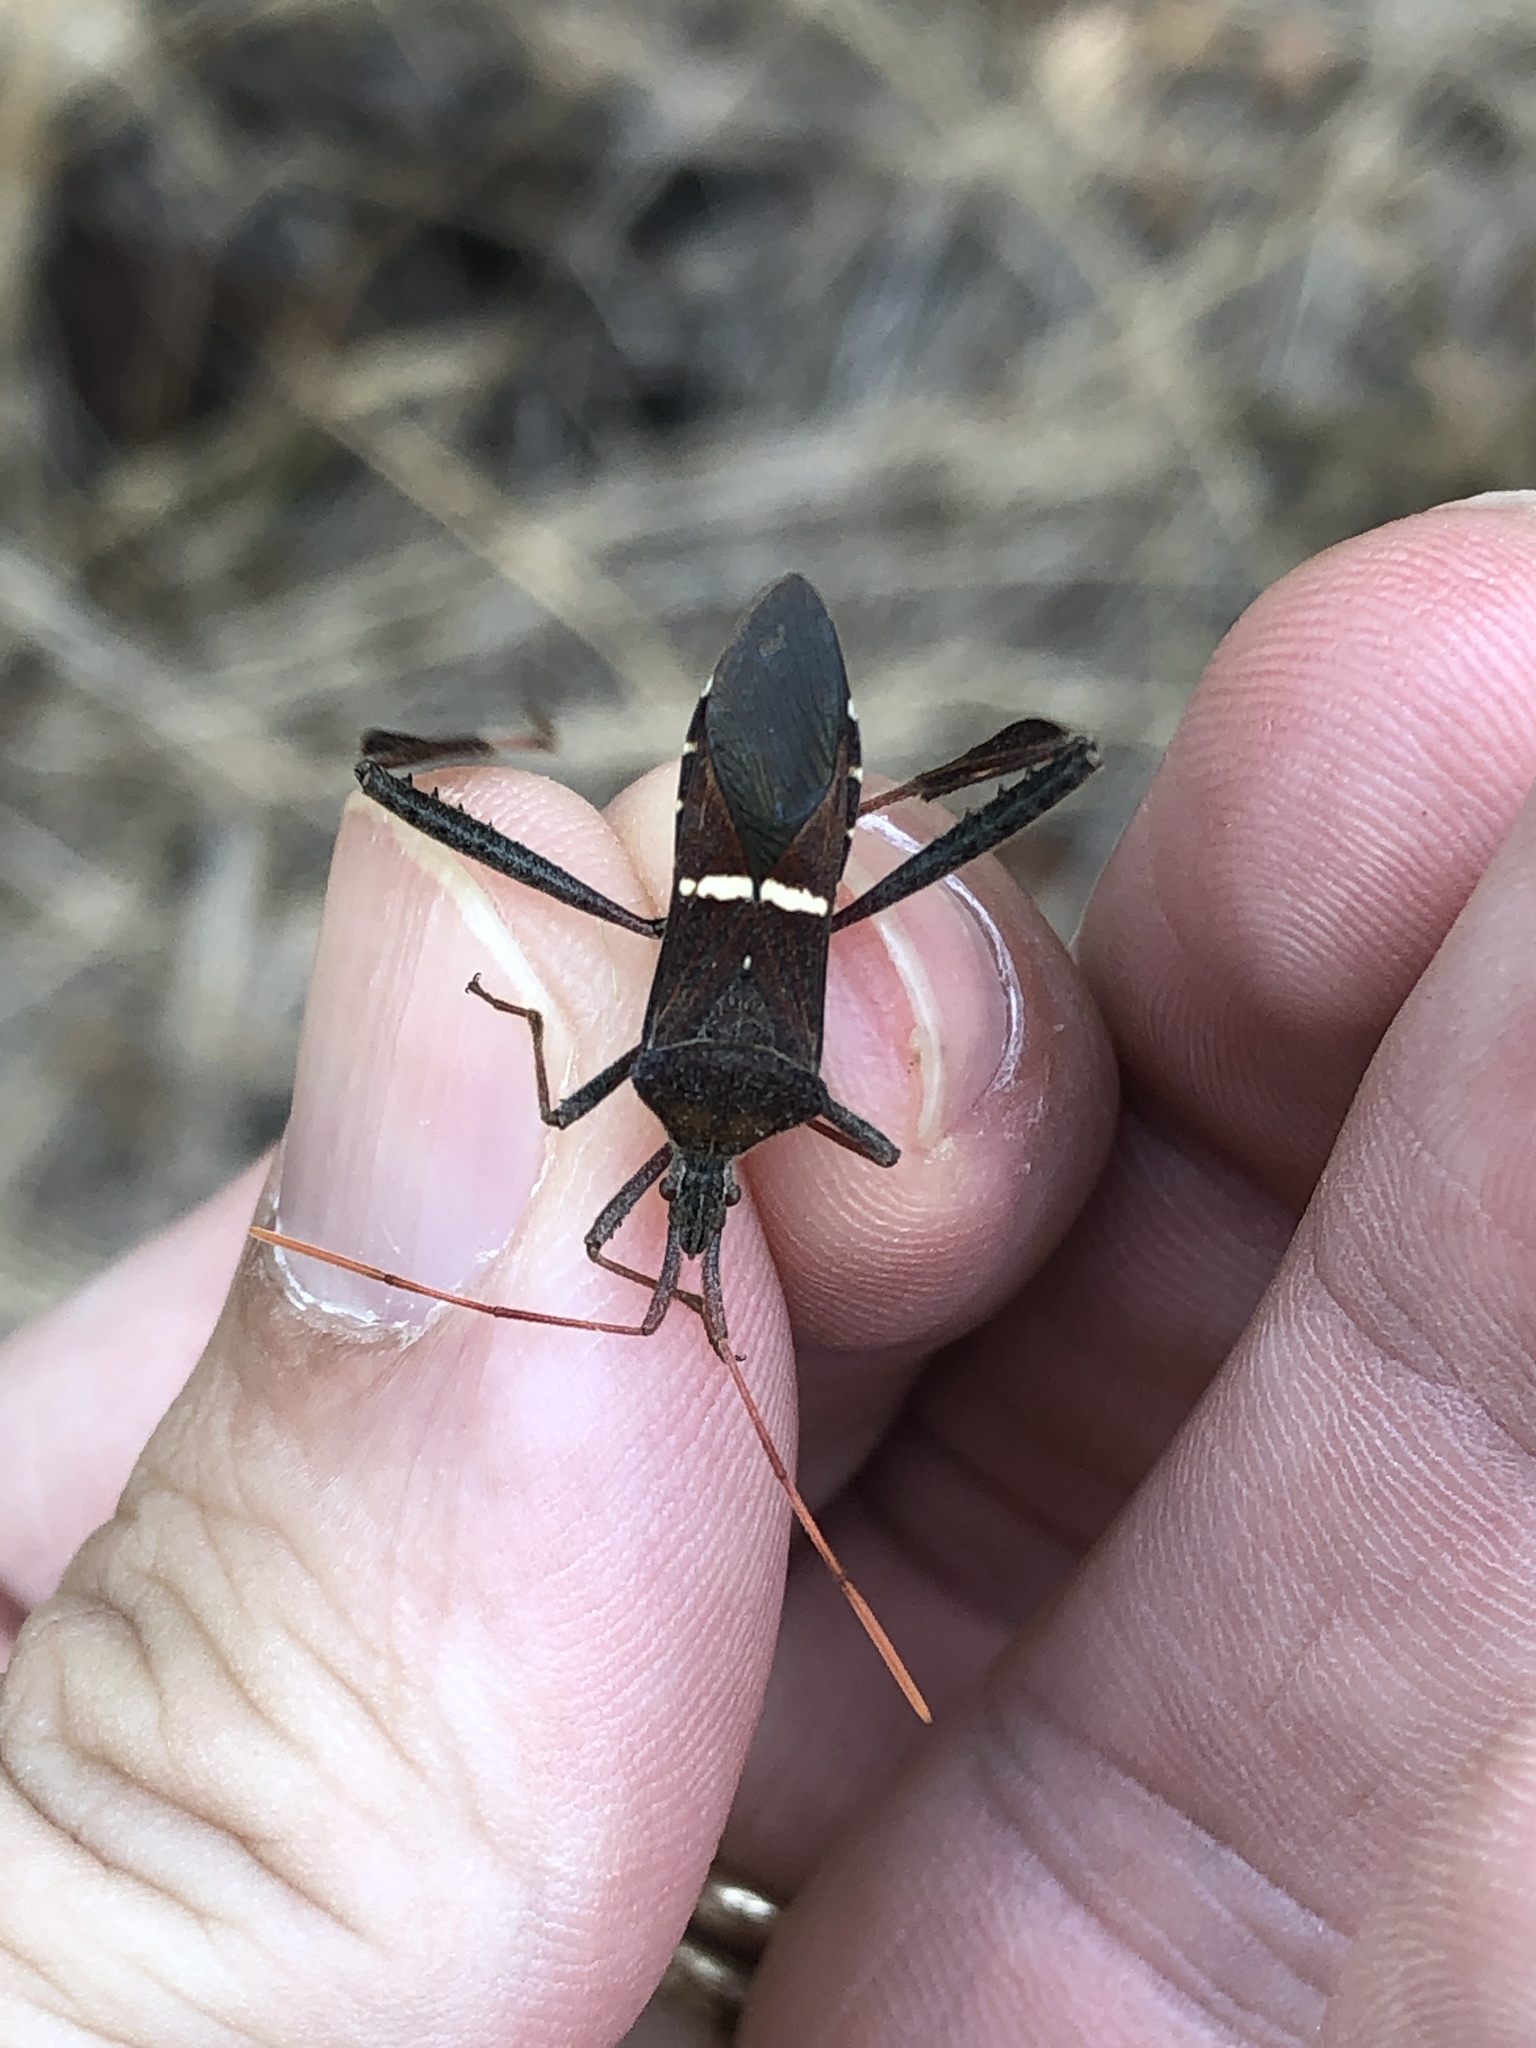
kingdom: Animalia
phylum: Arthropoda
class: Insecta
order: Hemiptera
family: Coreidae
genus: Leptoglossus
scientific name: Leptoglossus phyllopus
